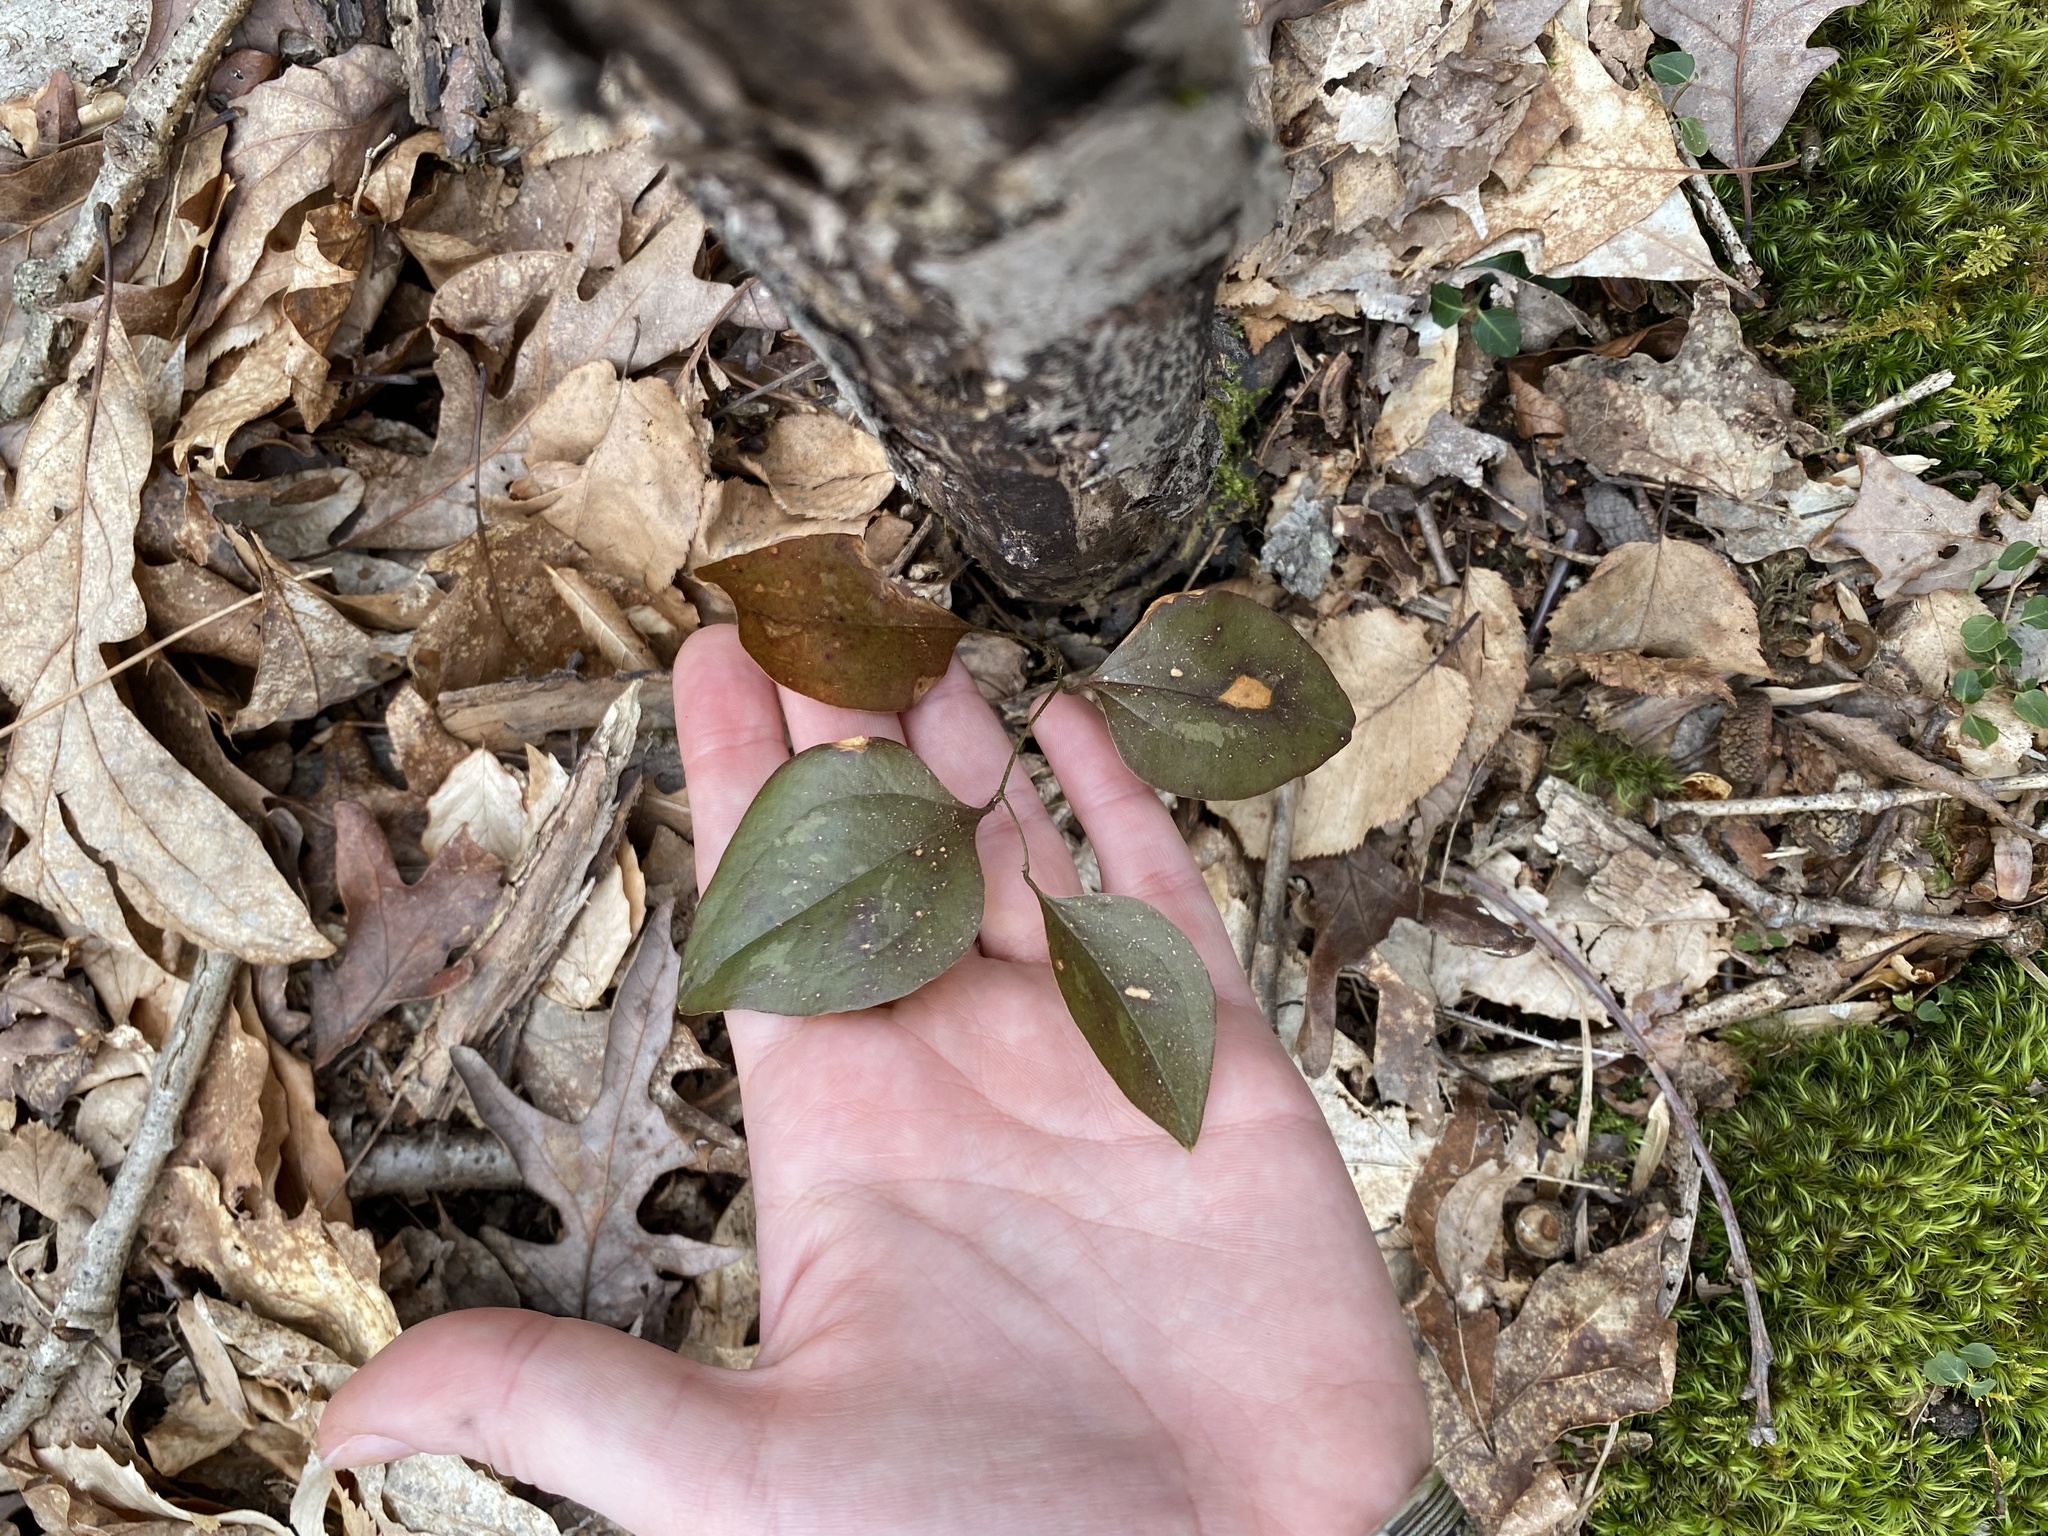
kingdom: Plantae
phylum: Tracheophyta
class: Liliopsida
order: Liliales
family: Smilacaceae
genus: Smilax
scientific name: Smilax glauca
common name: Cat greenbrier
